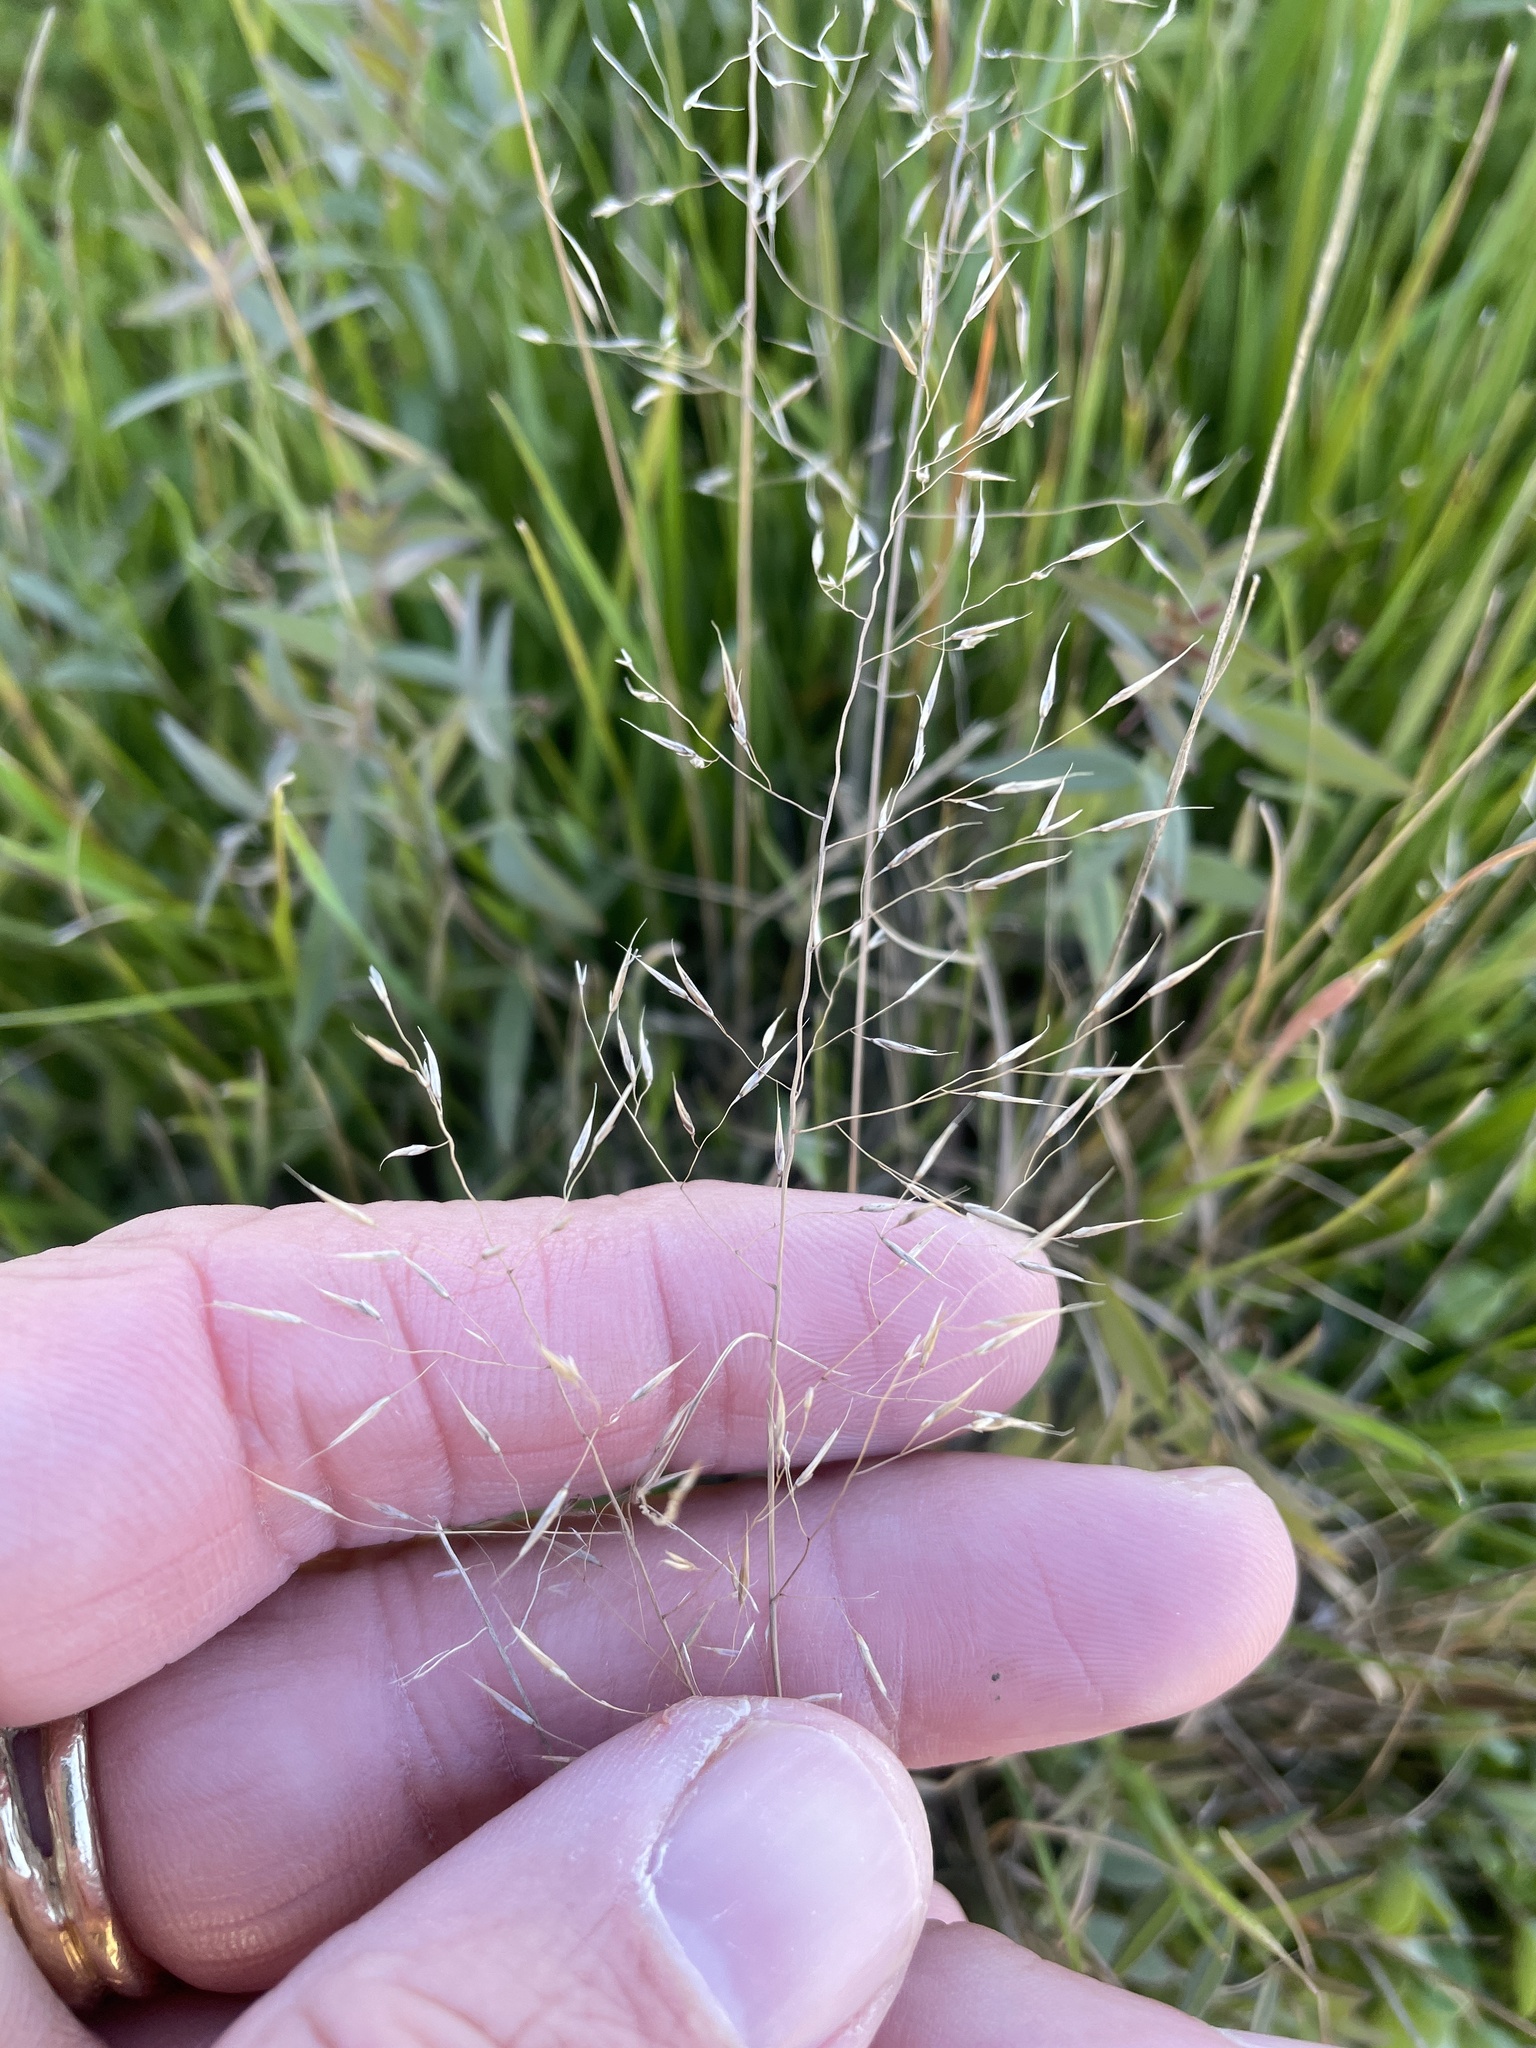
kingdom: Plantae
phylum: Tracheophyta
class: Liliopsida
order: Poales
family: Poaceae
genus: Muhlenbergia
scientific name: Muhlenbergia reverchonii
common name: Seep muhly
